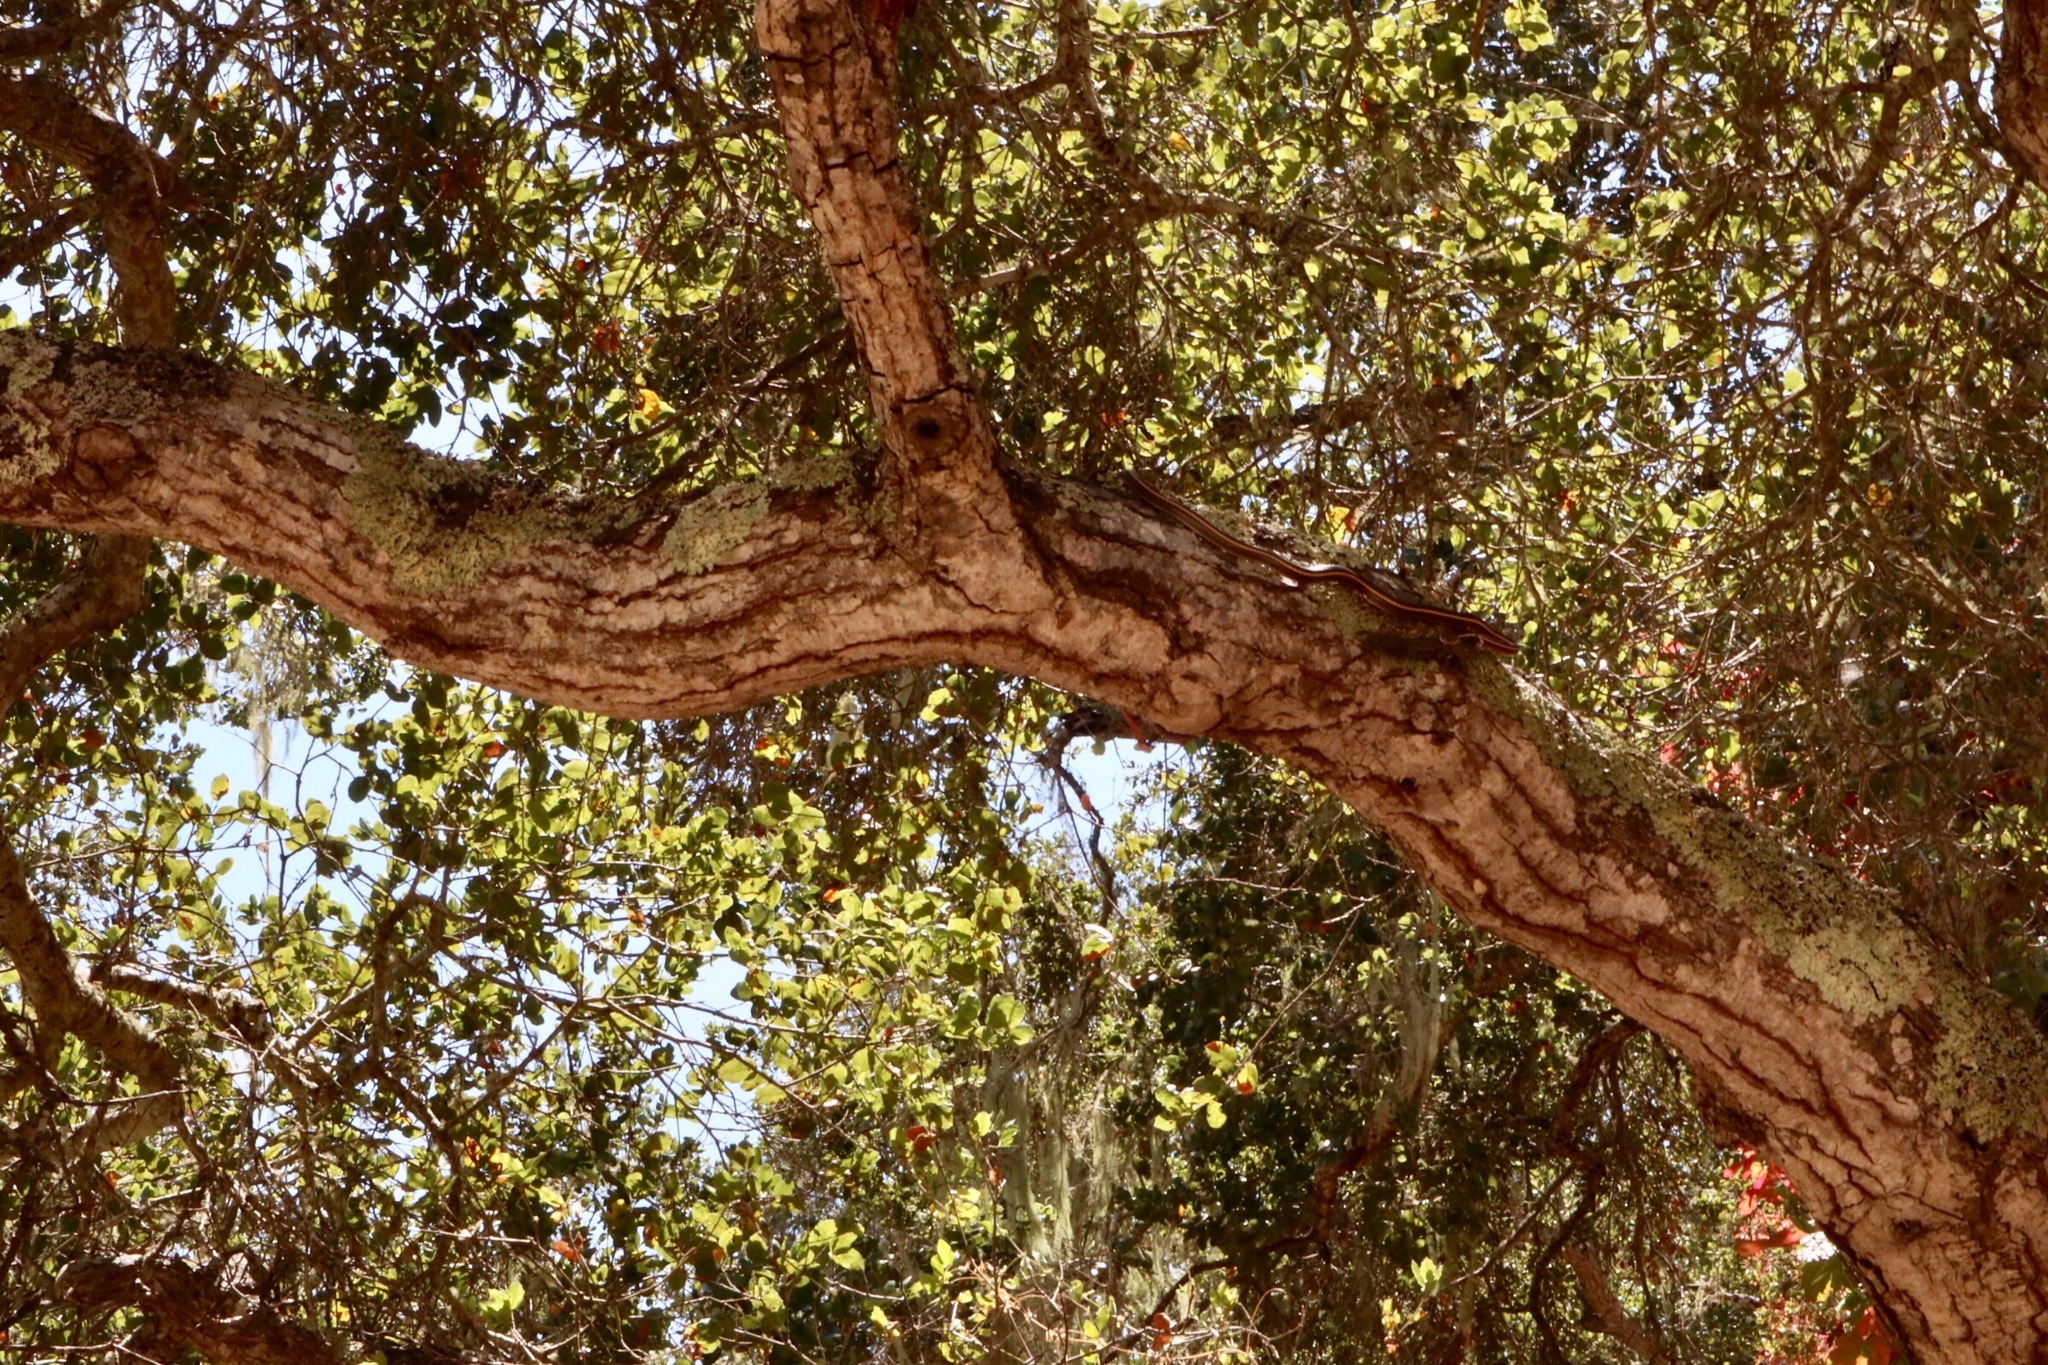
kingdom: Animalia
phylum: Chordata
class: Squamata
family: Colubridae
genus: Masticophis
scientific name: Masticophis lateralis
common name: Striped racer
